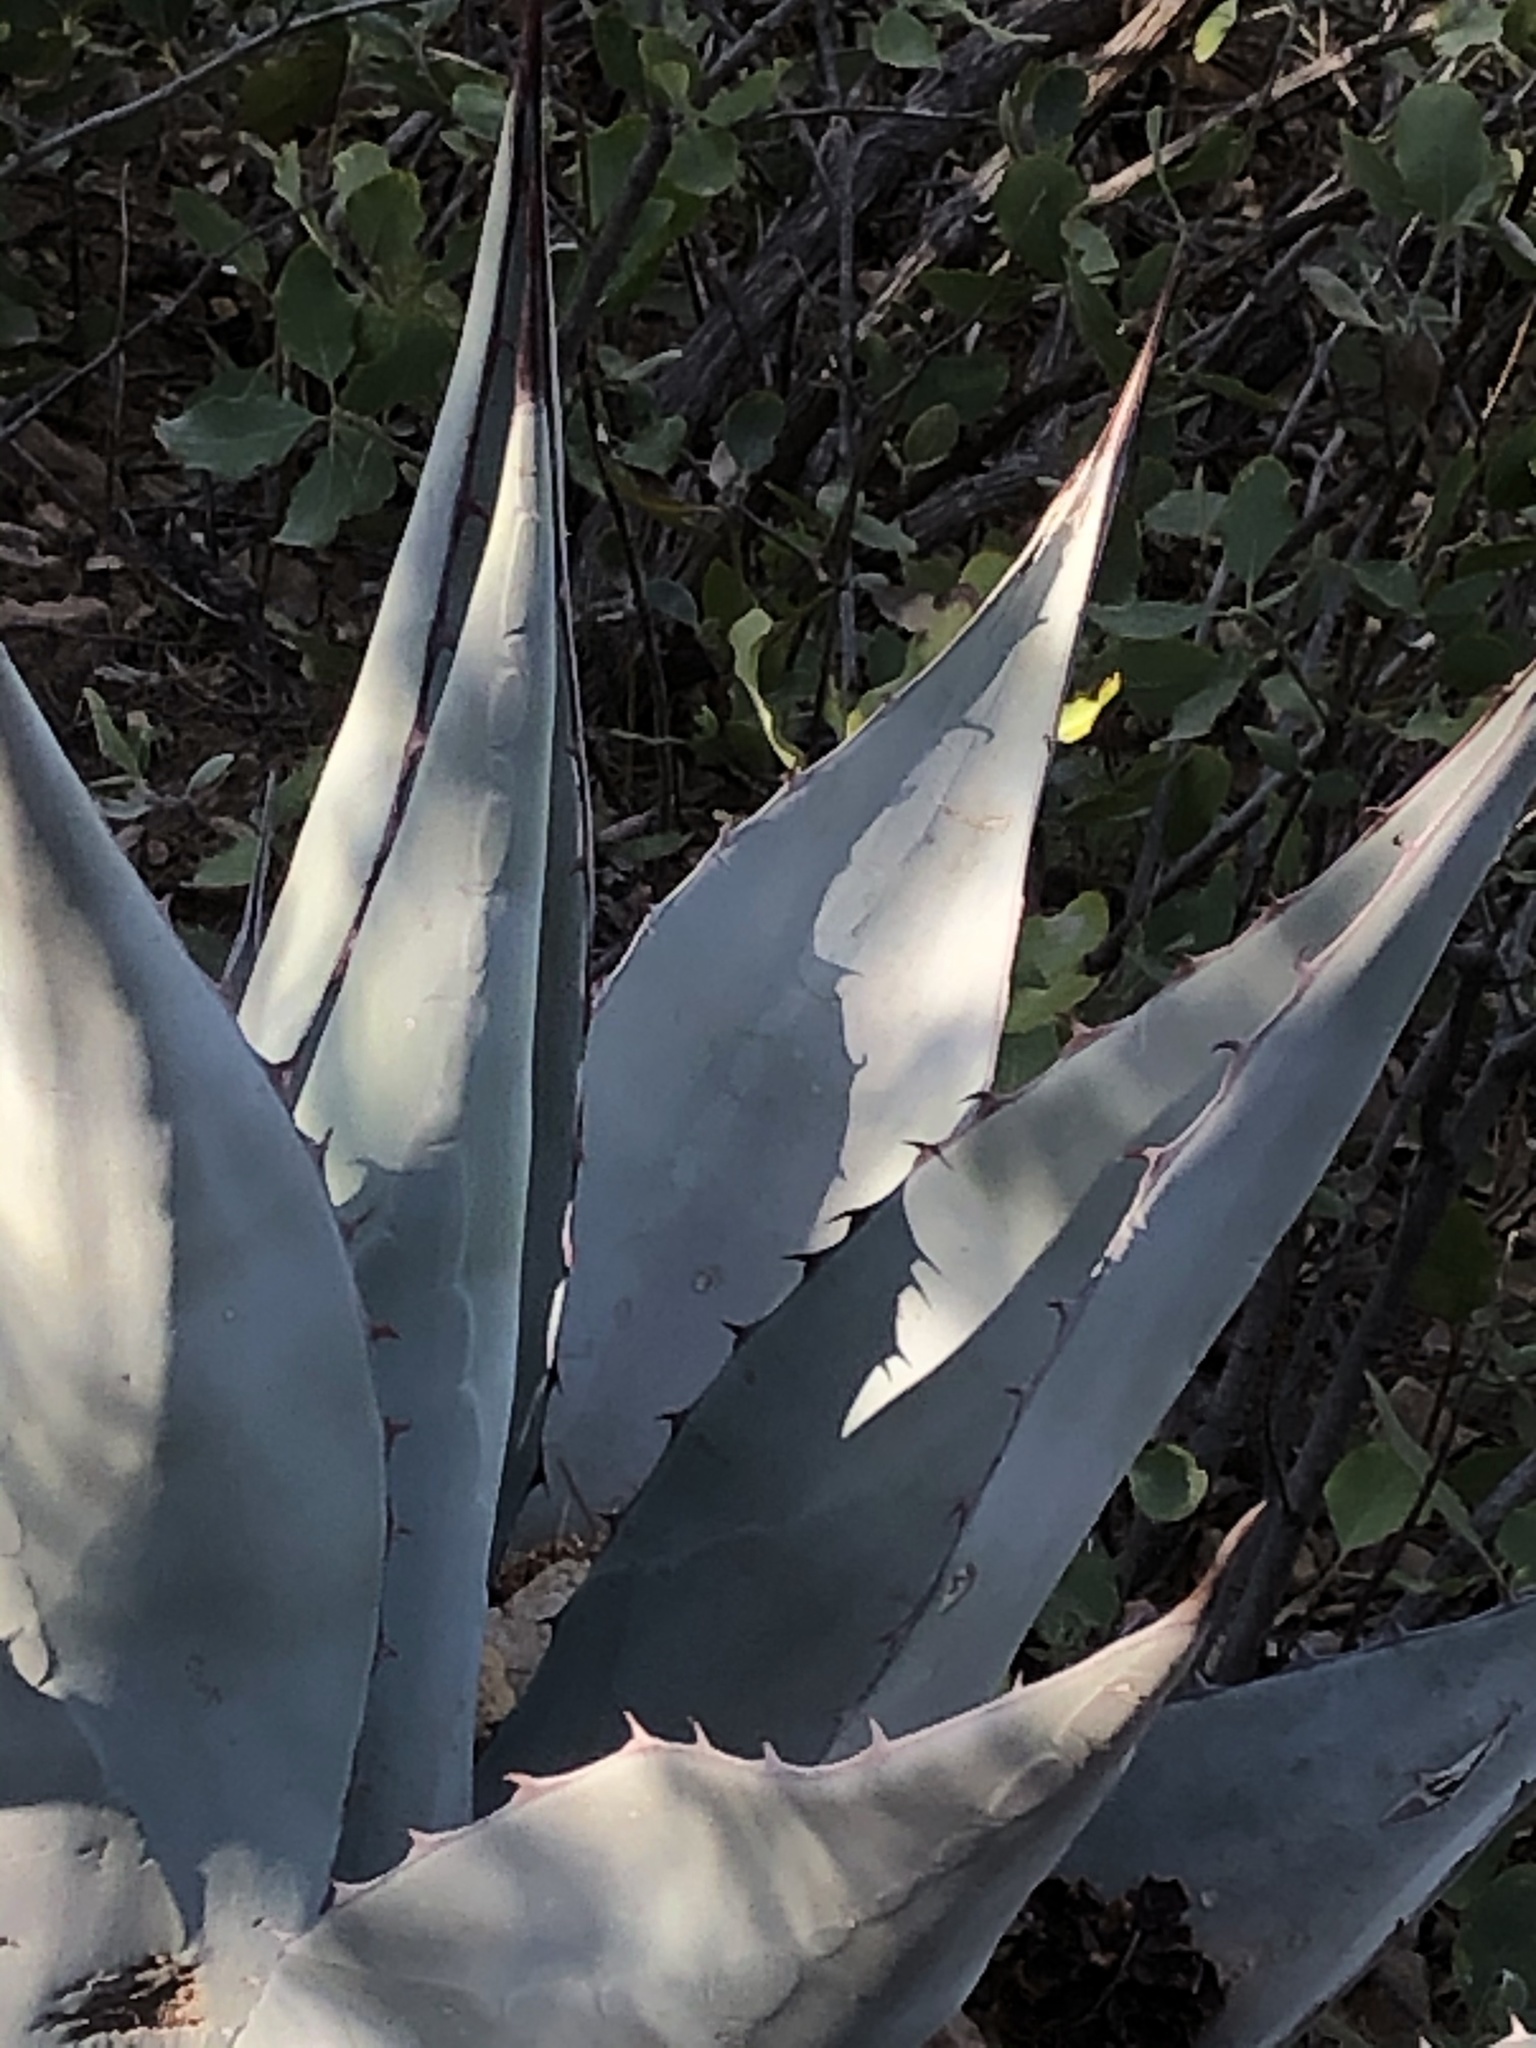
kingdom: Plantae
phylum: Tracheophyta
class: Liliopsida
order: Asparagales
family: Asparagaceae
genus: Agave
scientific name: Agave havardiana
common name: Havard agave
